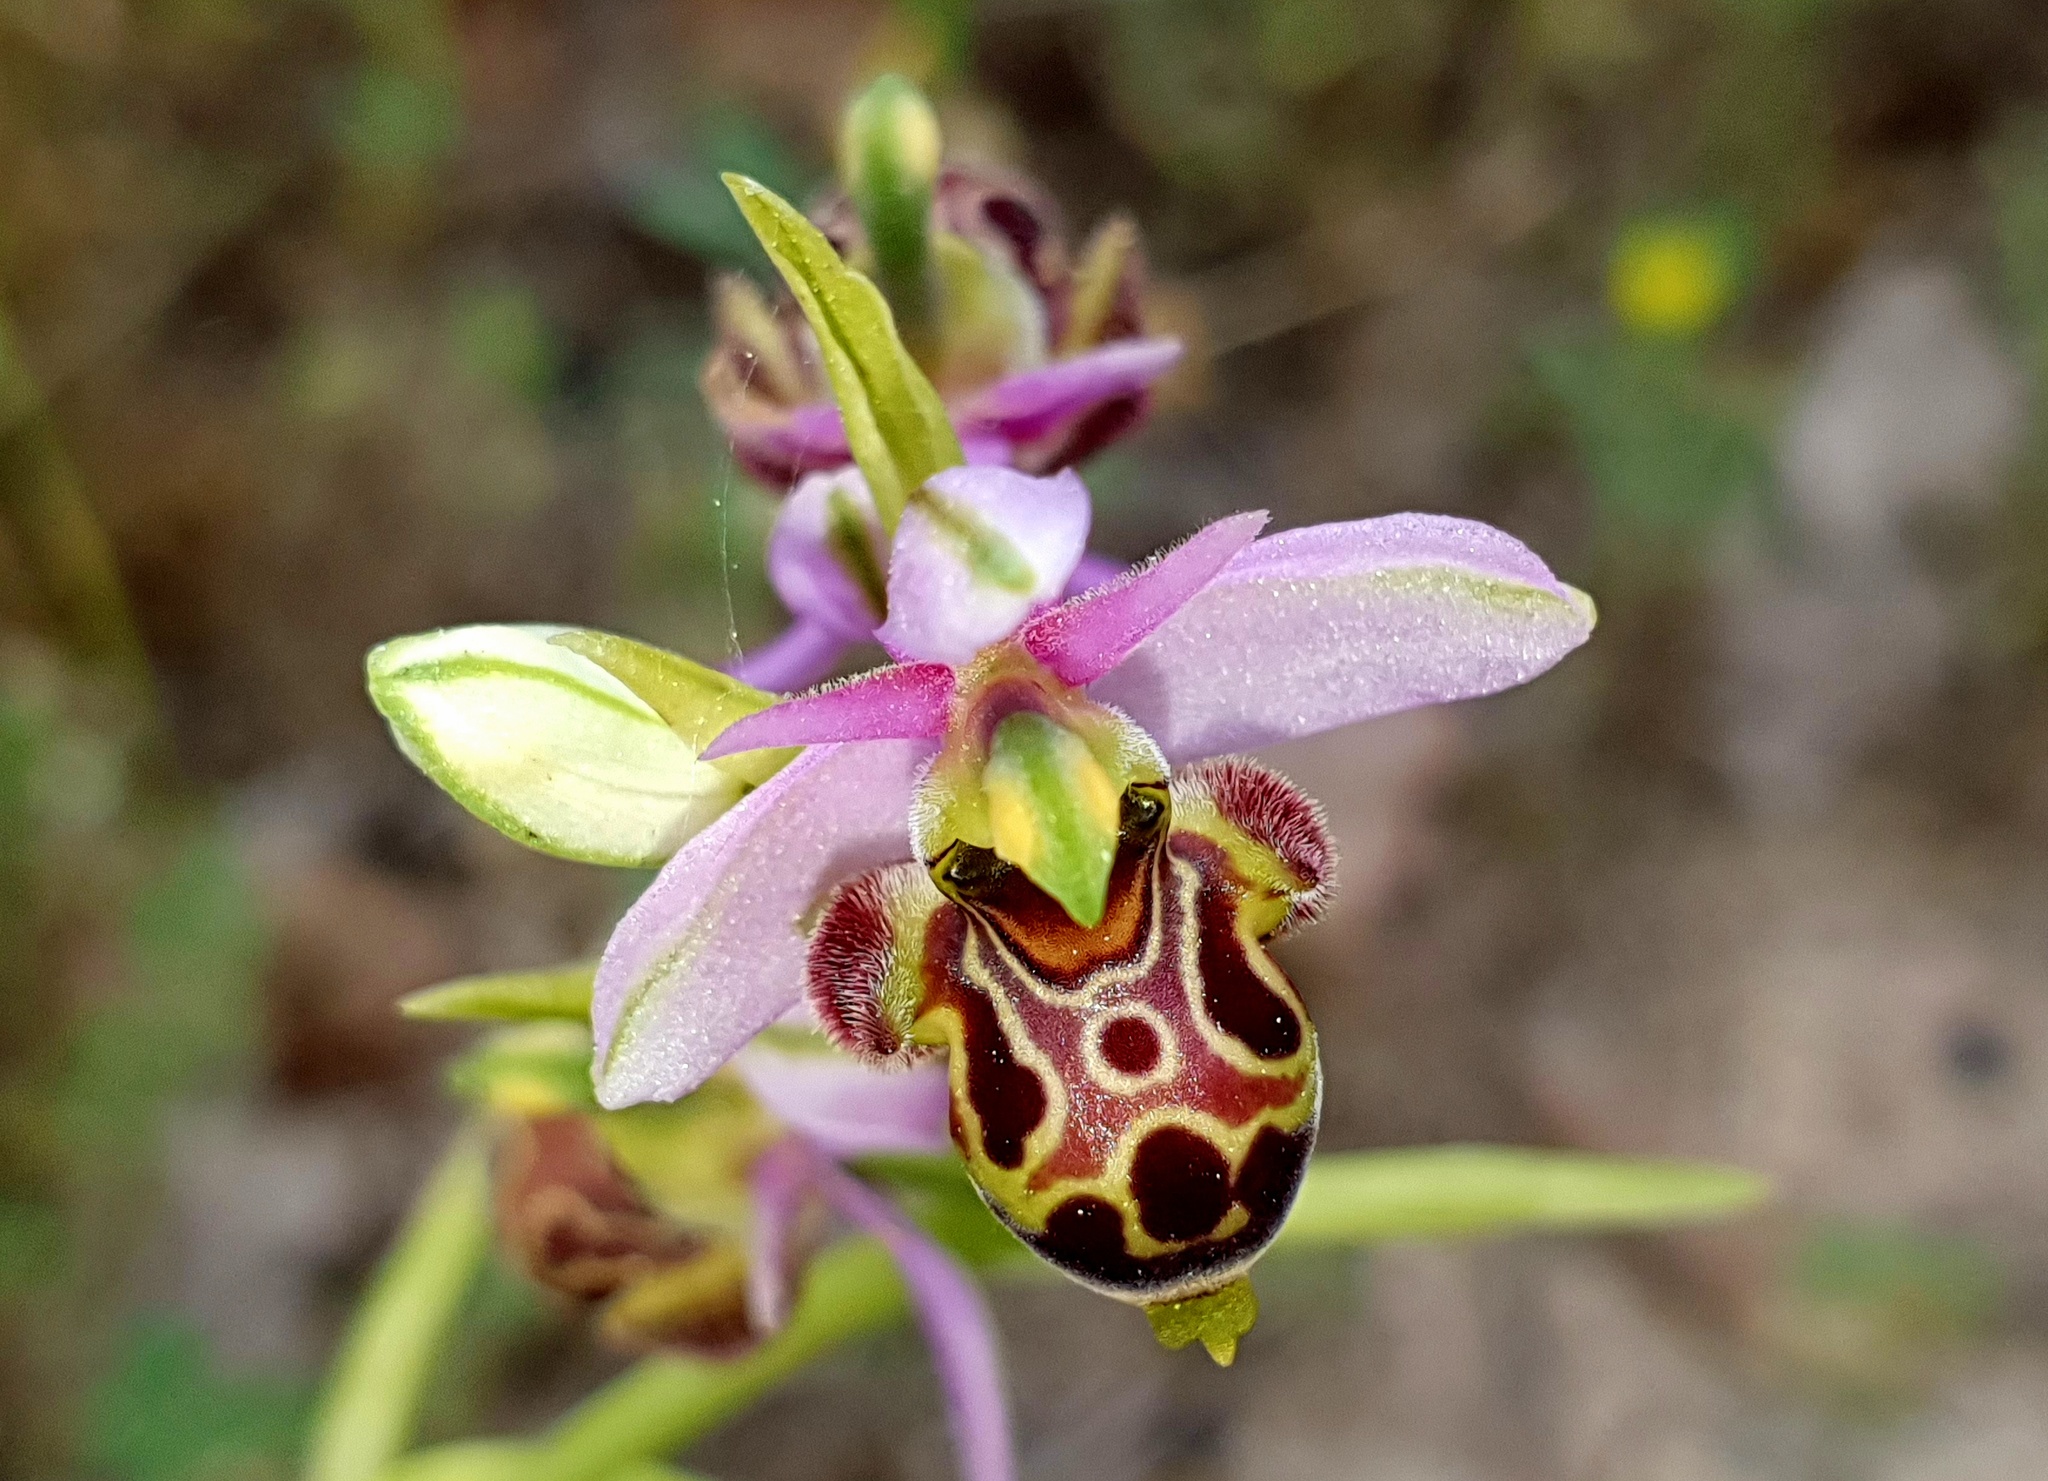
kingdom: Plantae
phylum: Tracheophyta
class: Liliopsida
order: Asparagales
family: Orchidaceae
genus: Ophrys
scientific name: Ophrys scolopax
